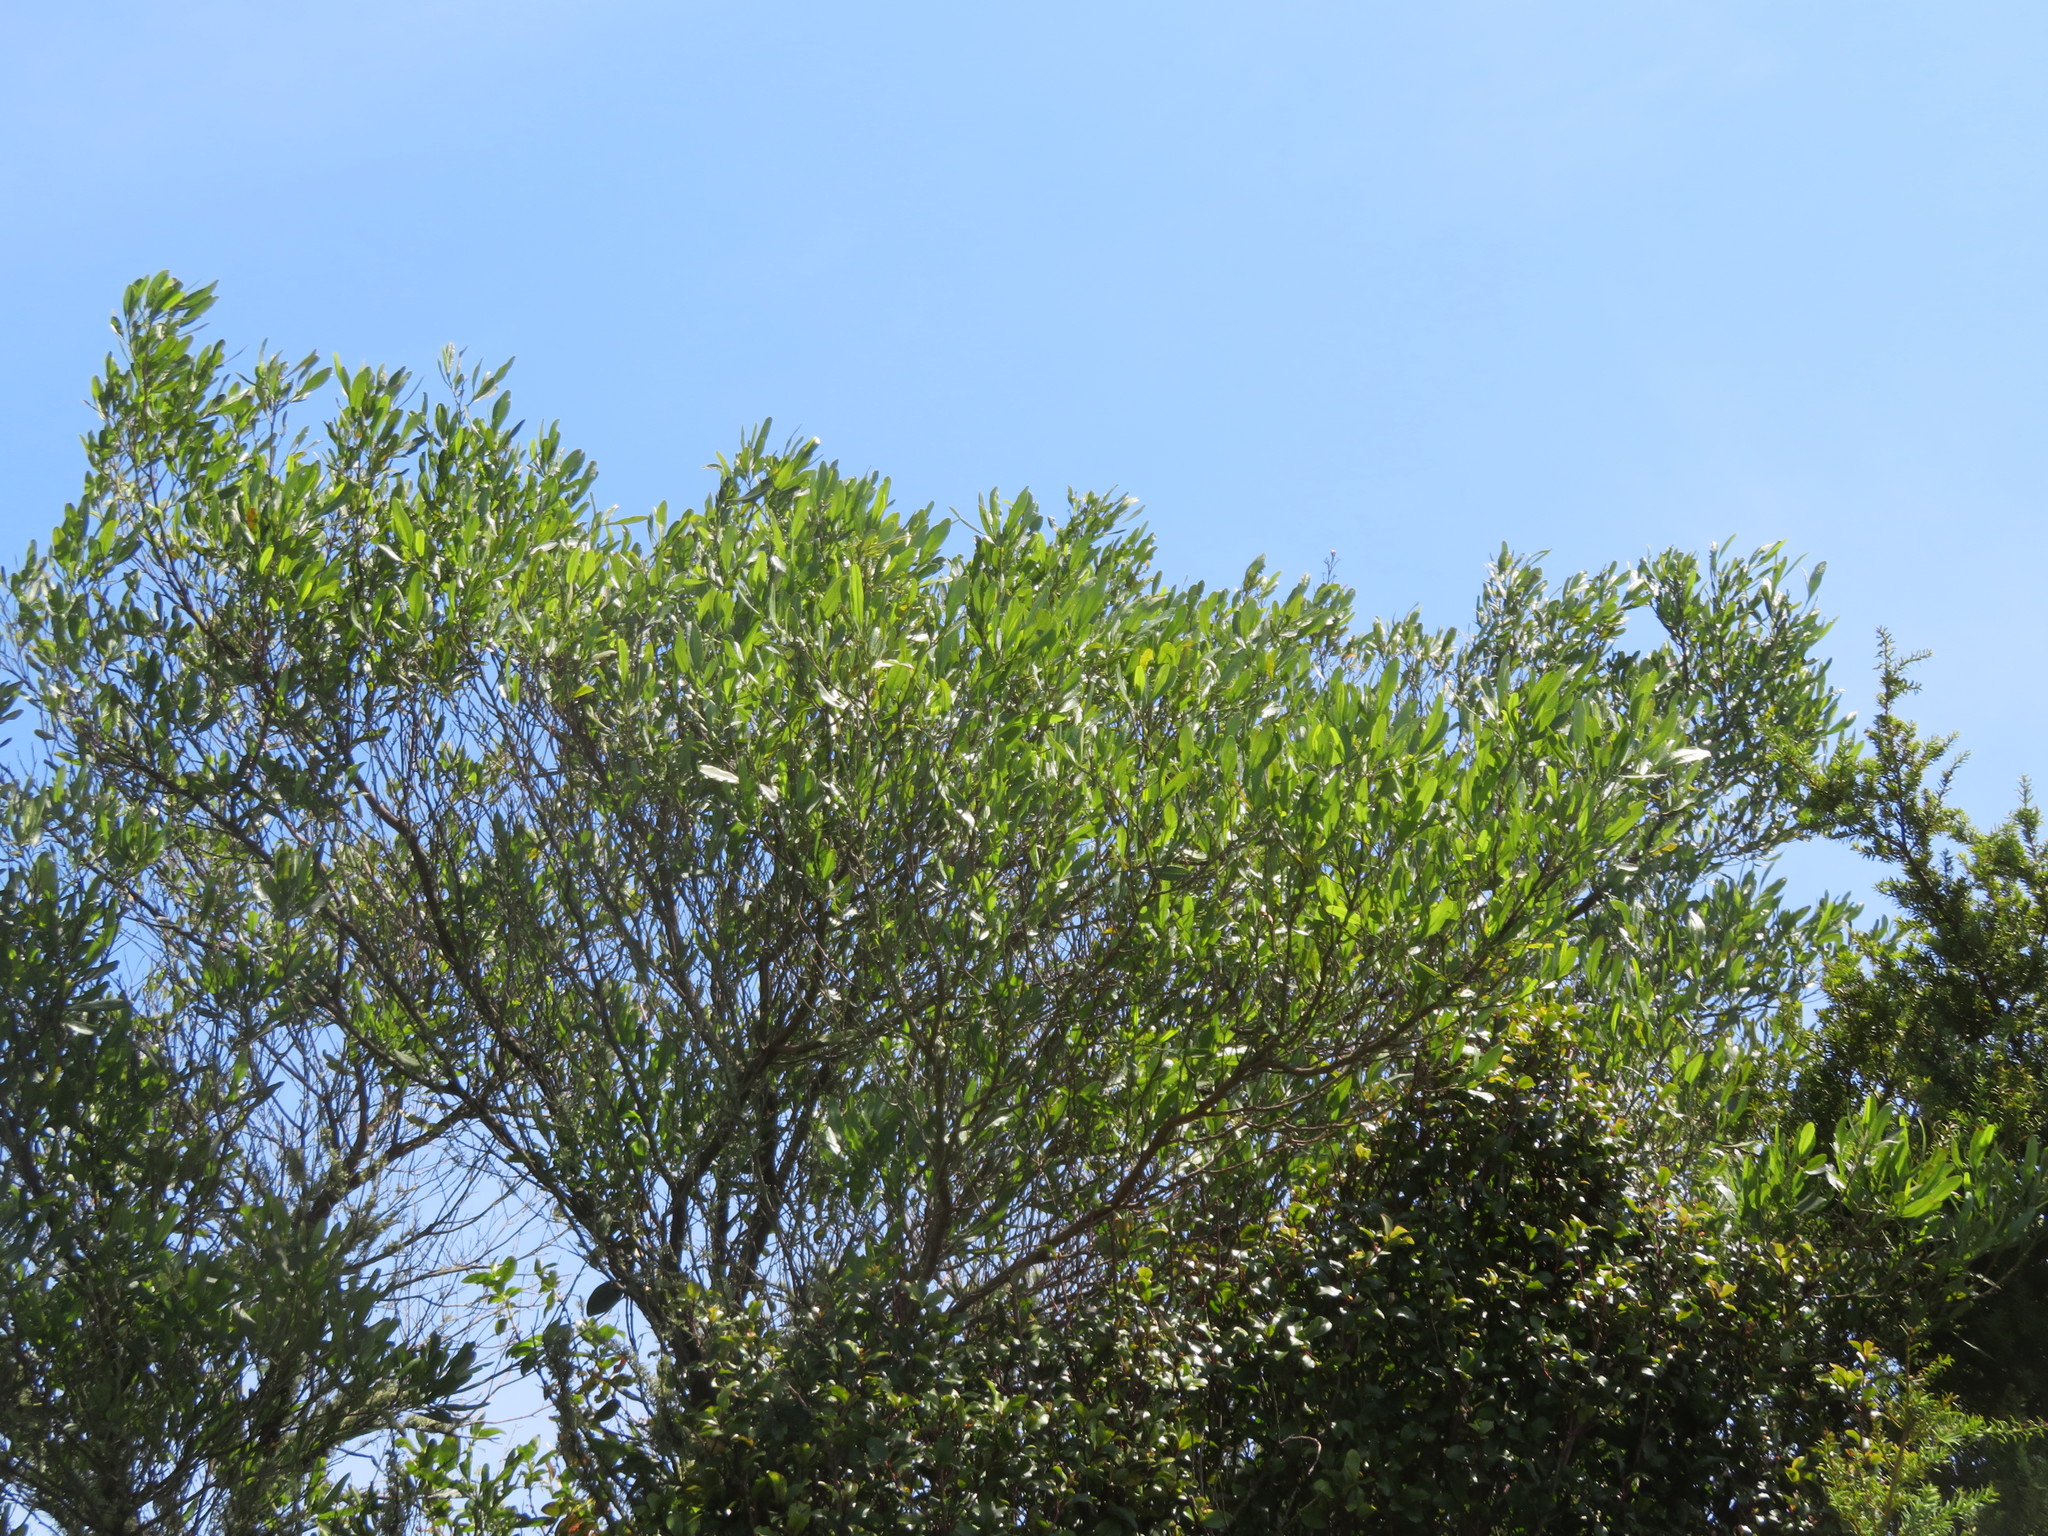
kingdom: Plantae
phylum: Tracheophyta
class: Magnoliopsida
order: Sapindales
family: Sapindaceae
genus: Dodonaea
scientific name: Dodonaea viscosa
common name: Hopbush
